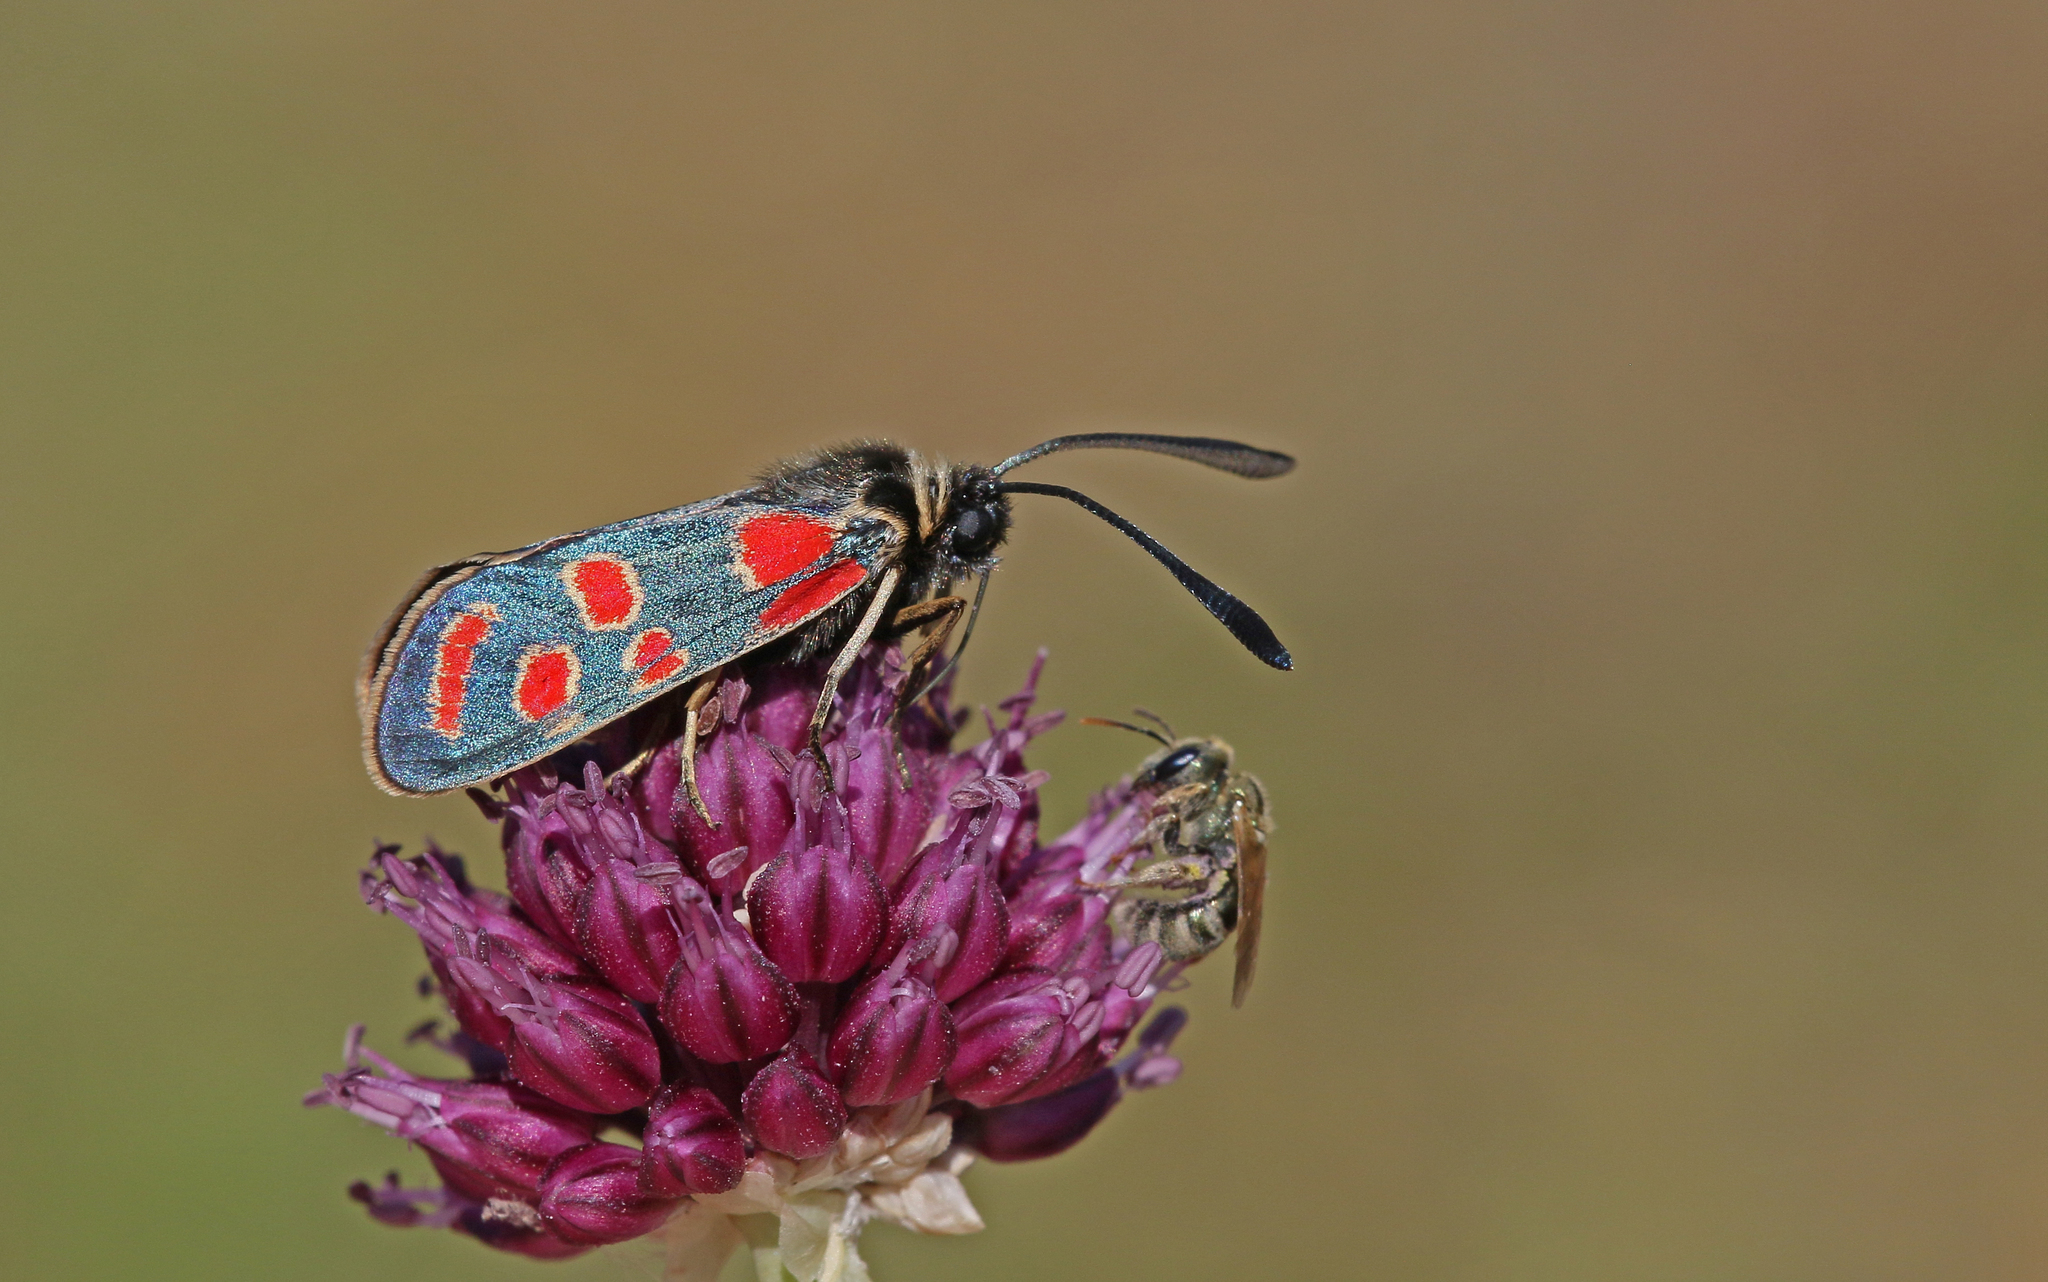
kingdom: Animalia
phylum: Arthropoda
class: Insecta
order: Lepidoptera
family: Zygaenidae
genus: Zygaena
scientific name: Zygaena carniolica
